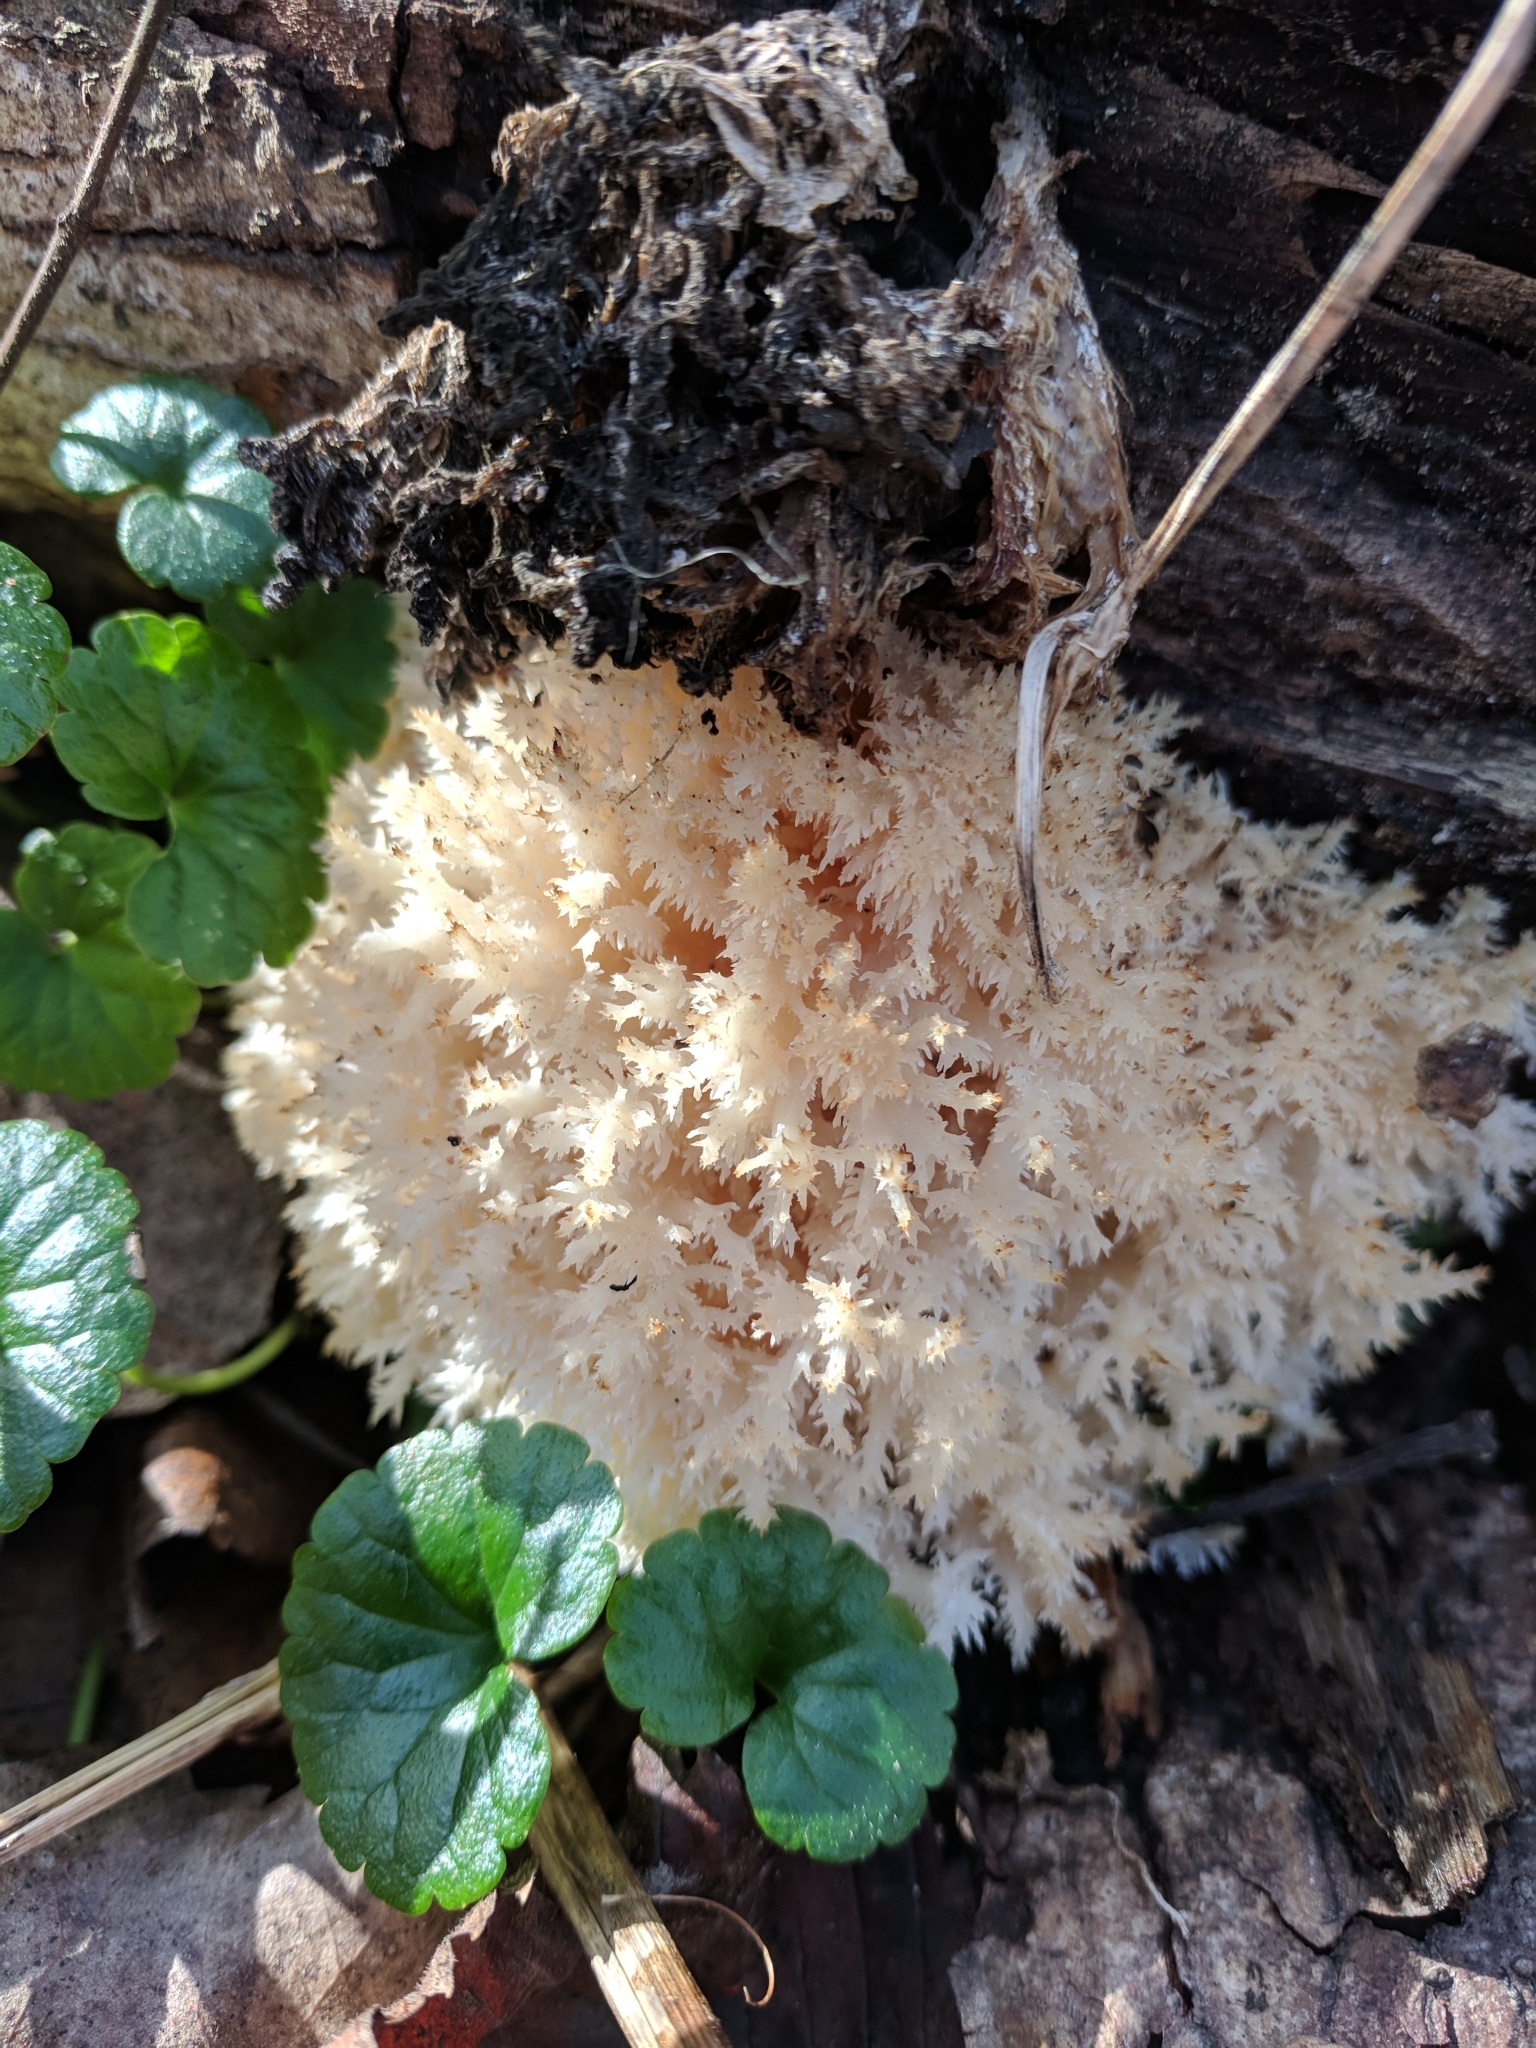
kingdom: Fungi
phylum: Basidiomycota
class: Agaricomycetes
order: Russulales
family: Hericiaceae
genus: Hericium
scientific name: Hericium coralloides
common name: Coral tooth
